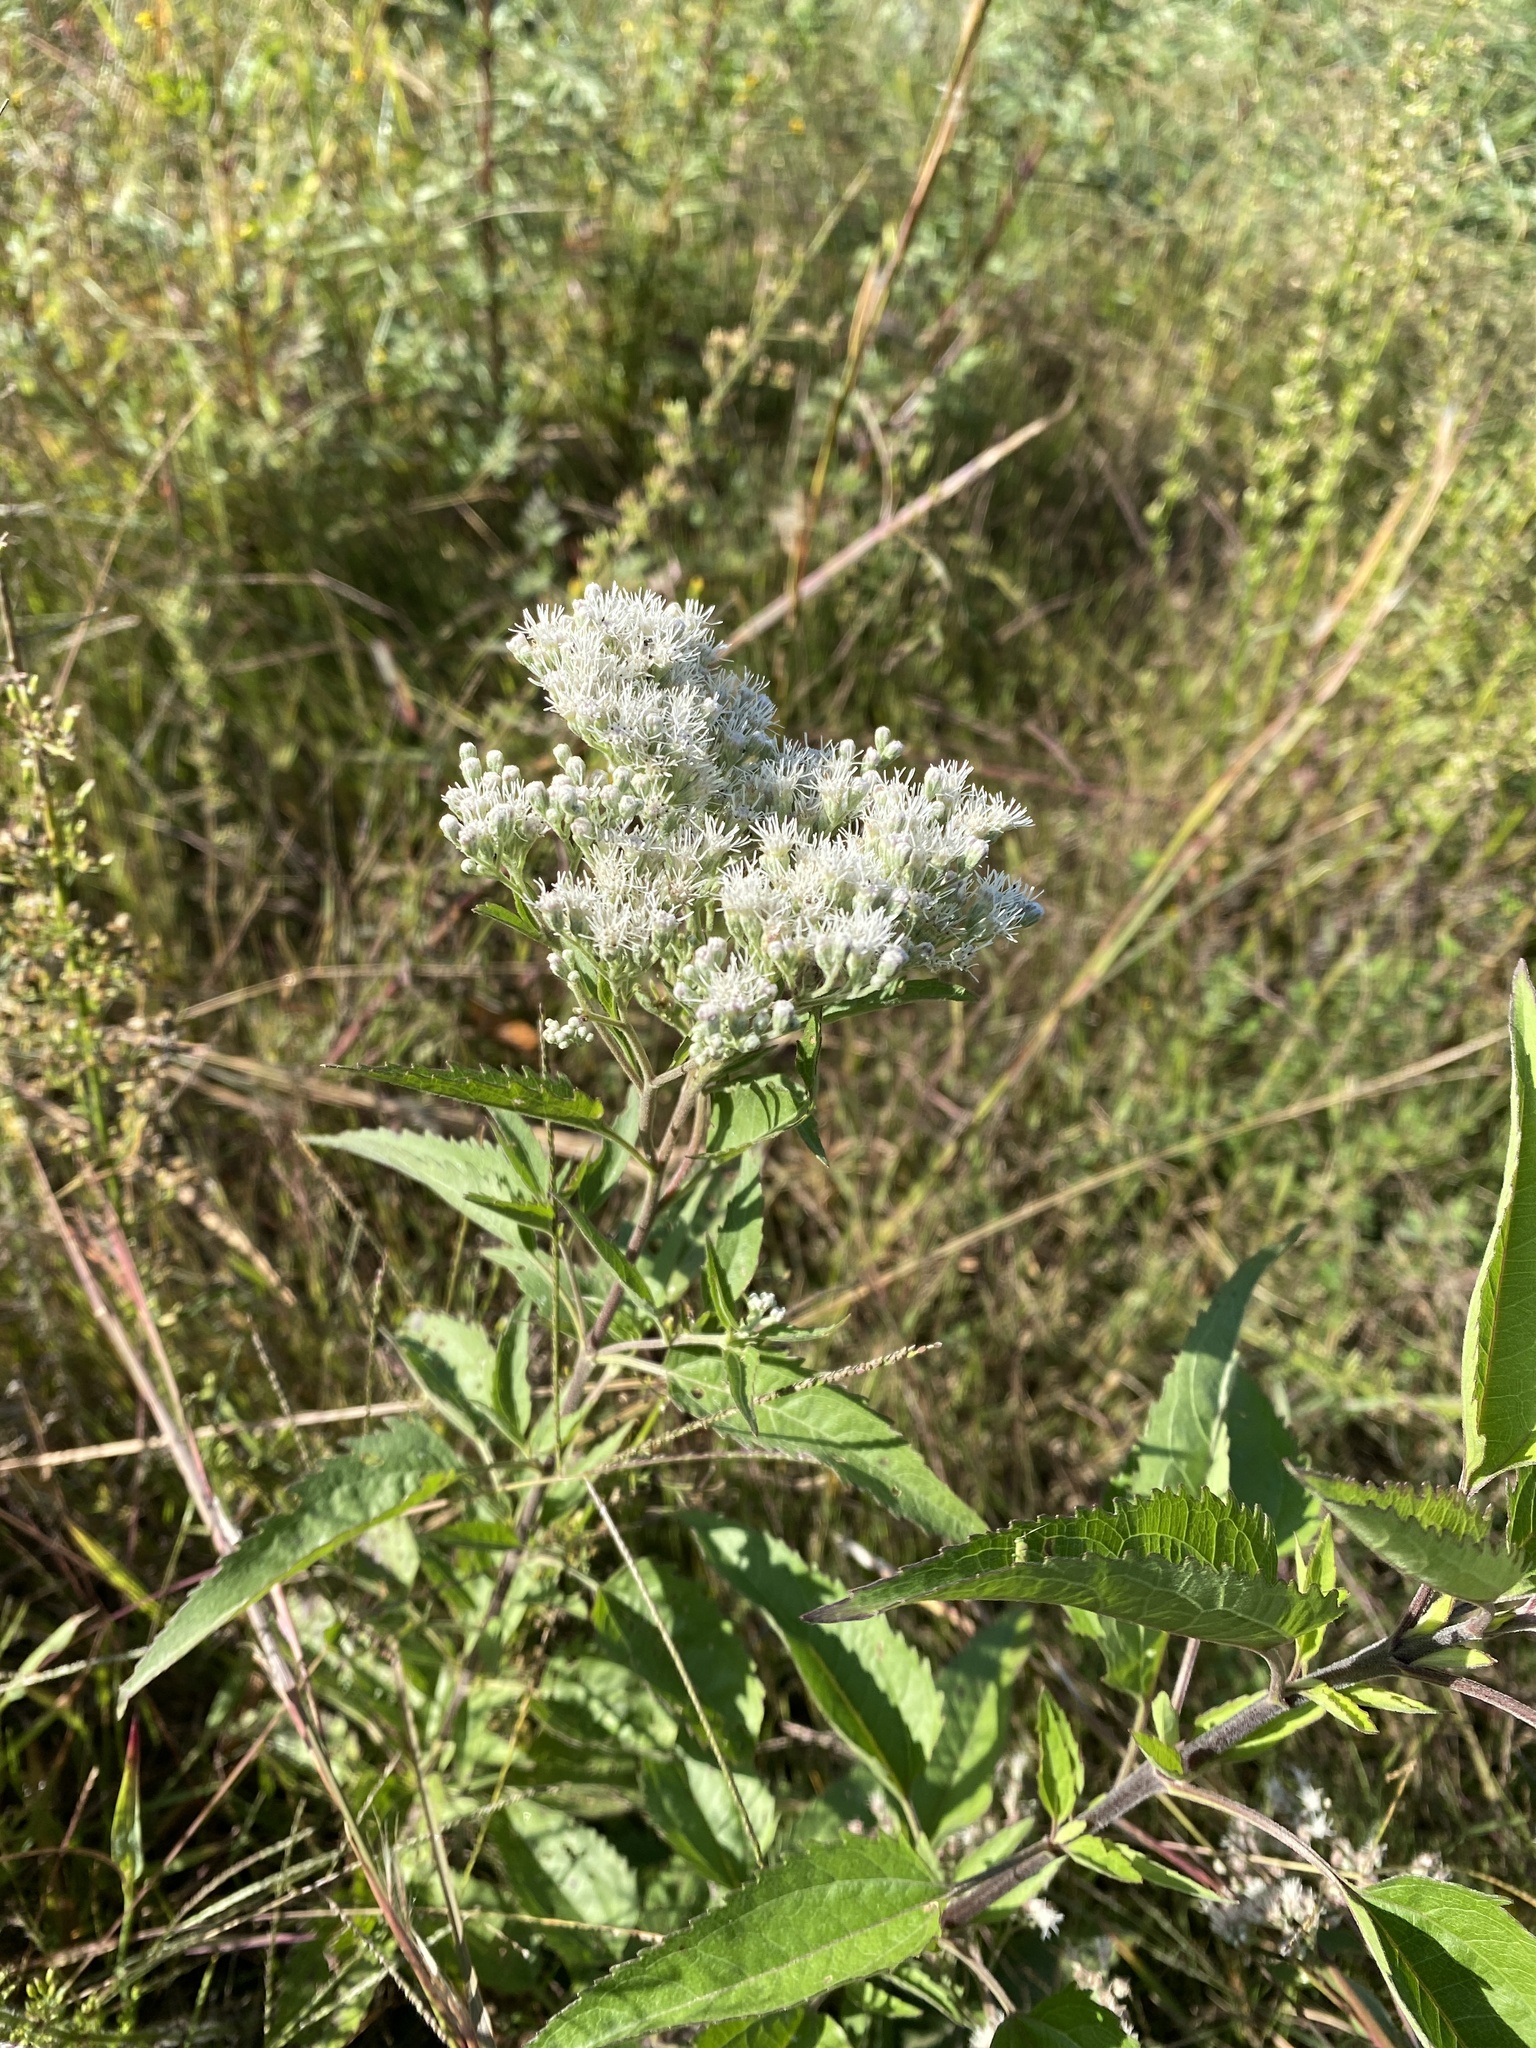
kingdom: Plantae
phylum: Tracheophyta
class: Magnoliopsida
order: Asterales
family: Asteraceae
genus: Eupatorium
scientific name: Eupatorium serotinum
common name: Late boneset
